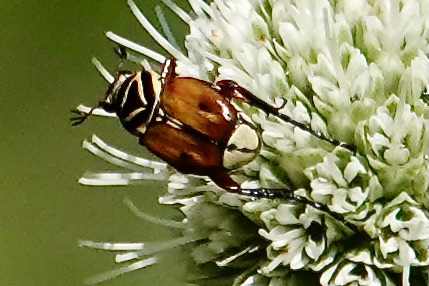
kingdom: Animalia
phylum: Arthropoda
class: Insecta
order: Coleoptera
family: Scarabaeidae
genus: Trigonopeltastes
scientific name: Trigonopeltastes delta
